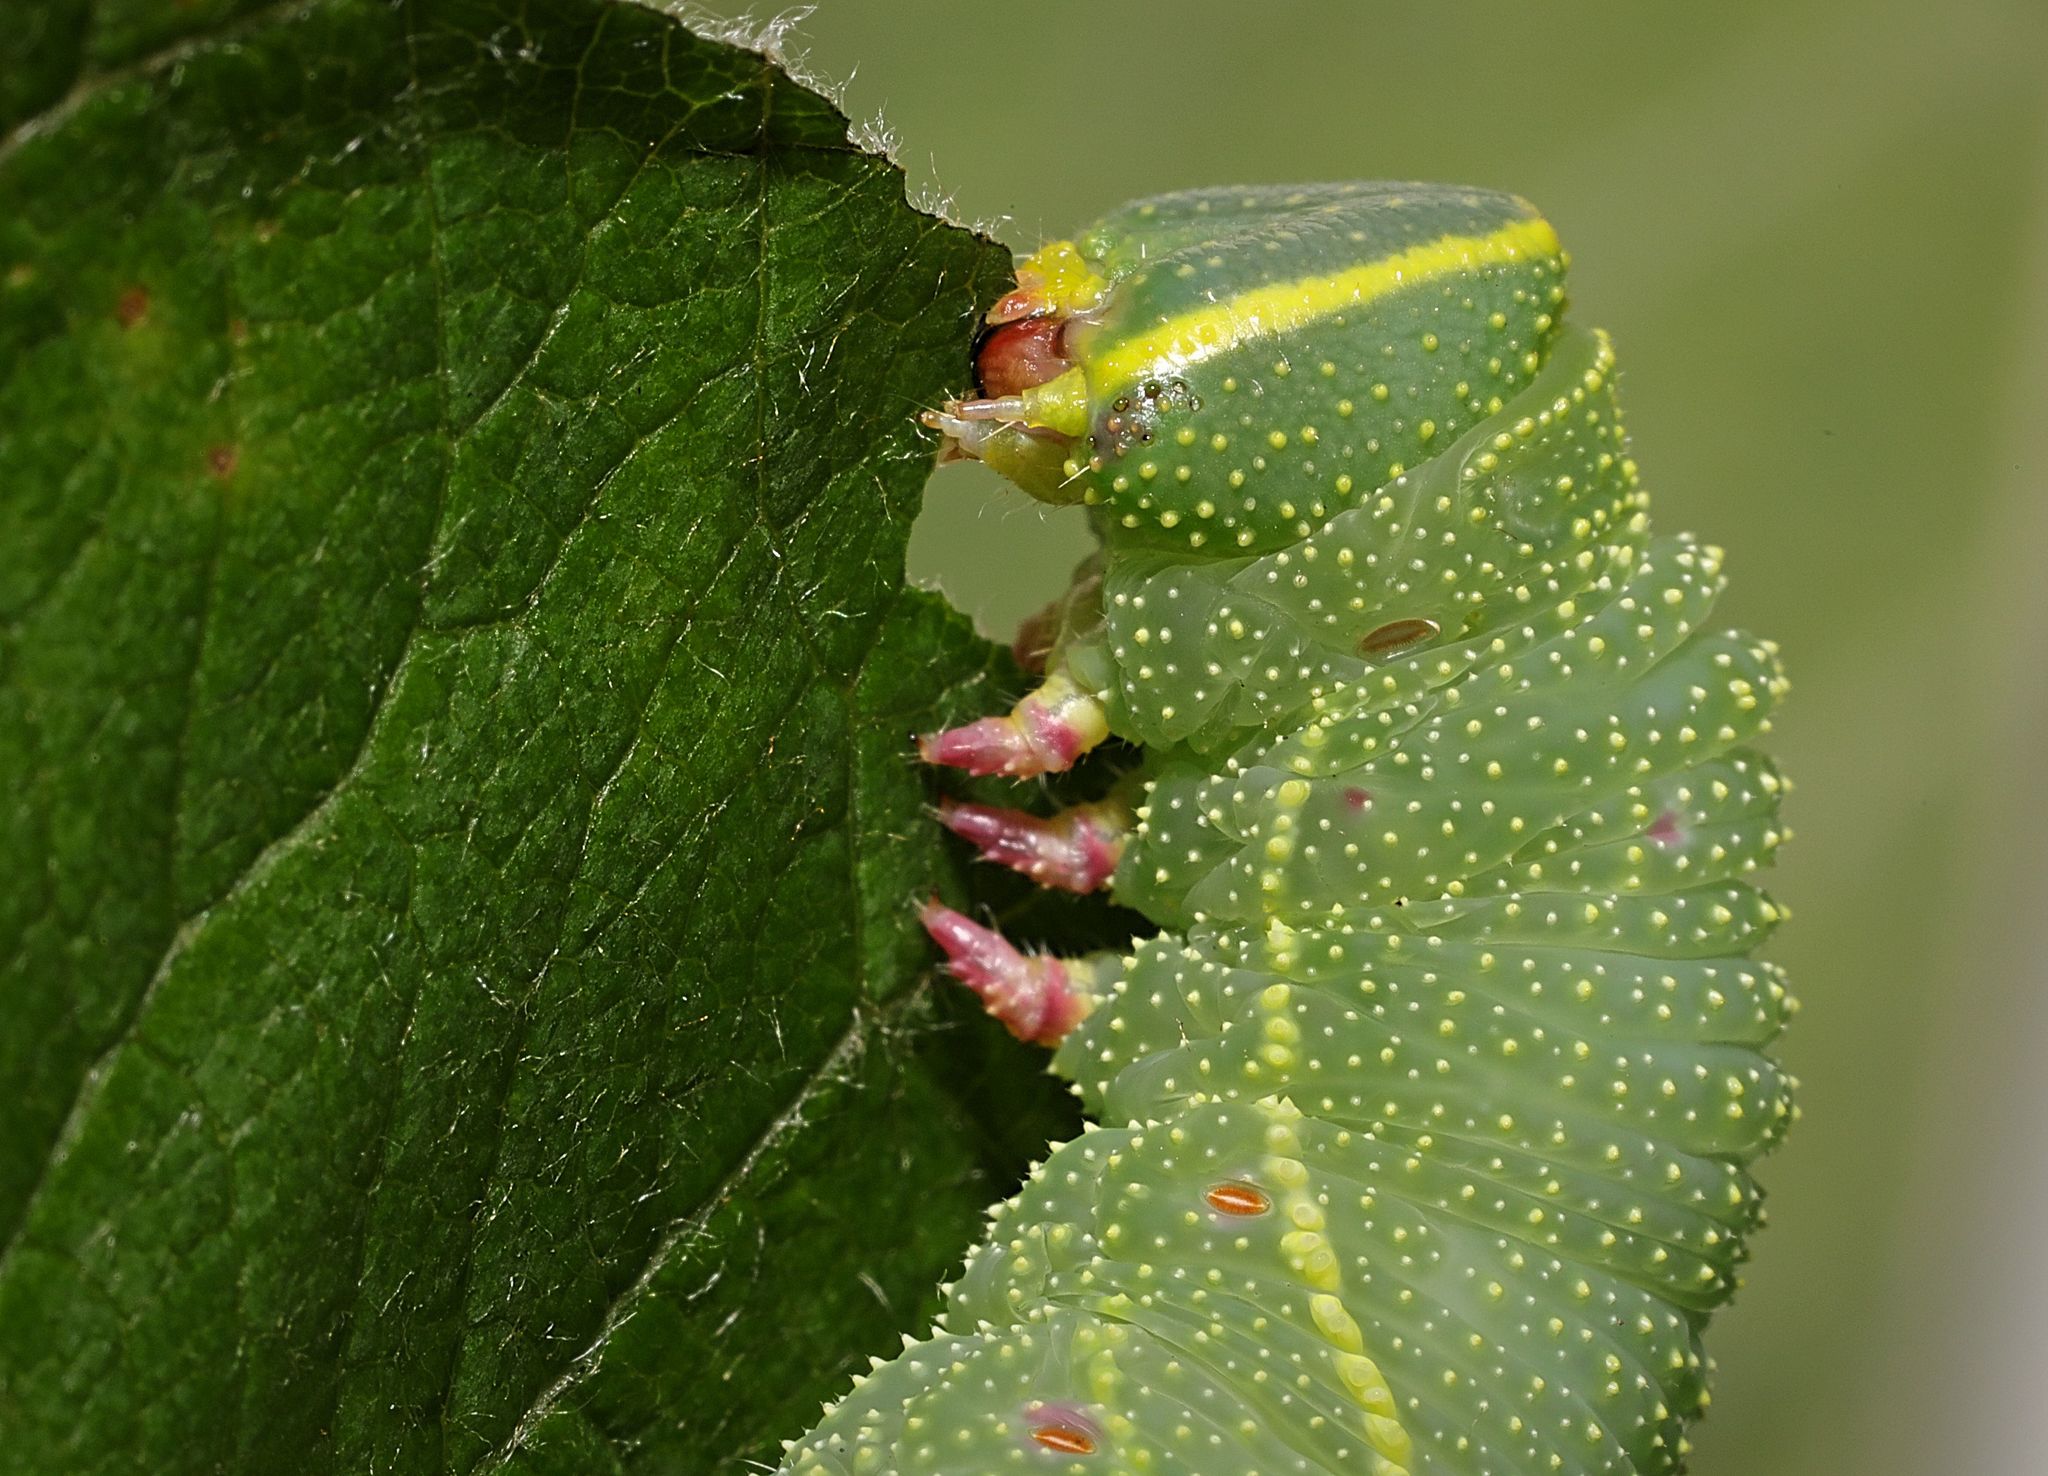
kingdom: Animalia
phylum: Arthropoda
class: Insecta
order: Lepidoptera
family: Sphingidae
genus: Laothoe
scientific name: Laothoe populi
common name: Poplar hawk-moth
